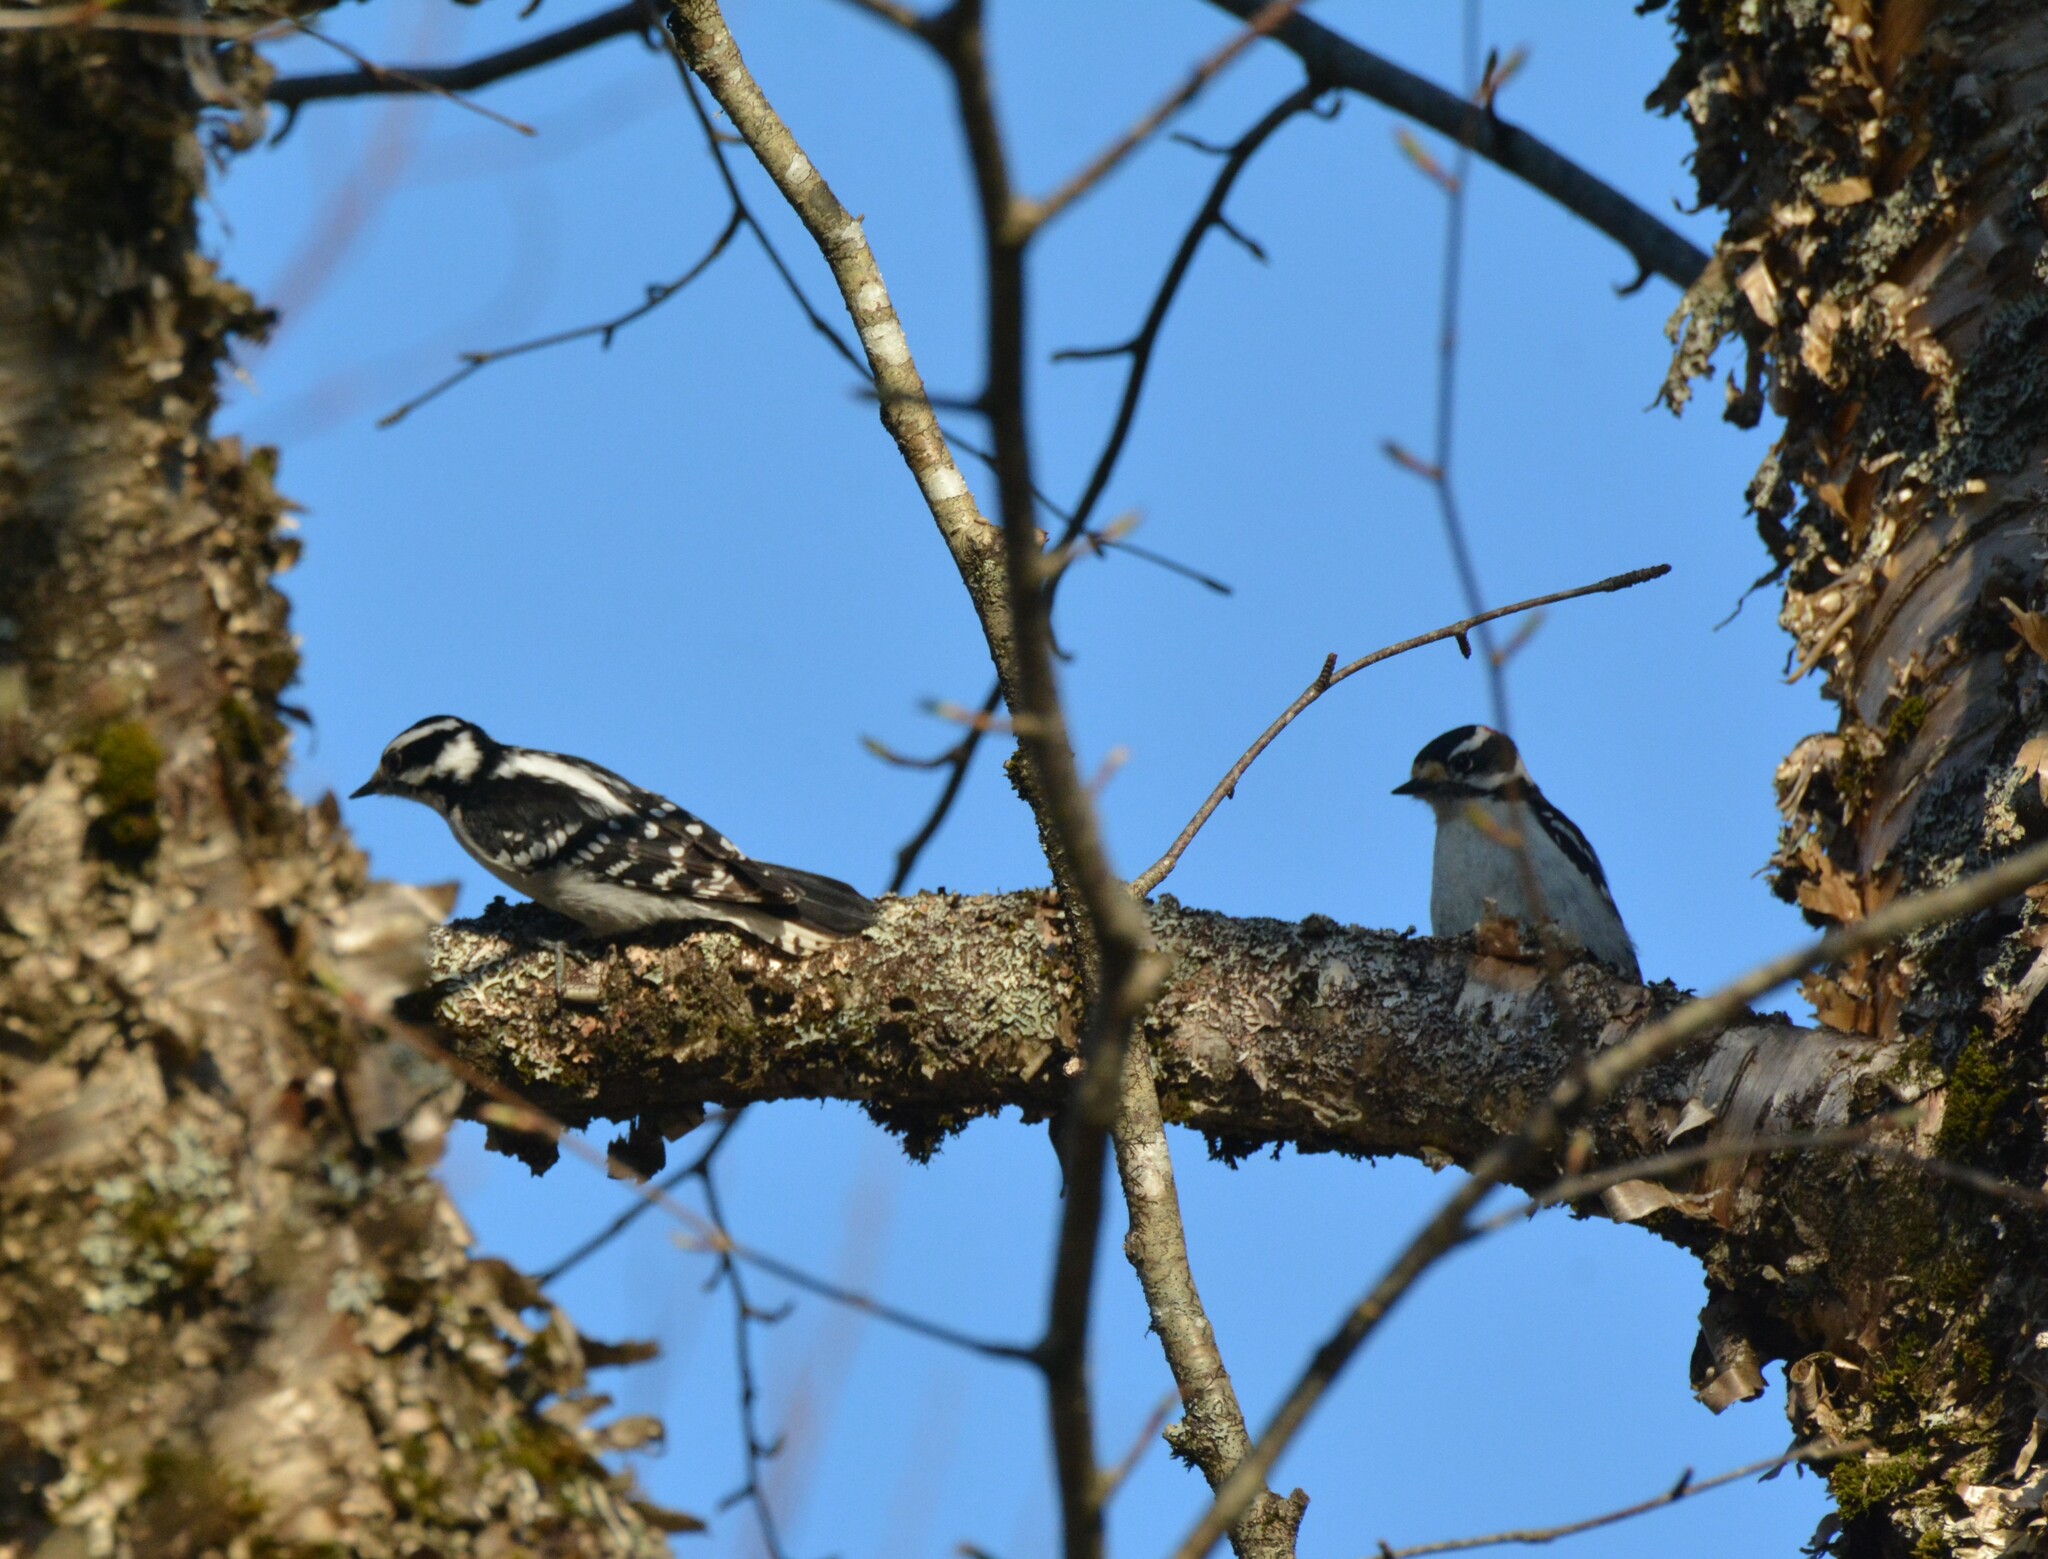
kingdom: Animalia
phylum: Chordata
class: Aves
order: Piciformes
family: Picidae
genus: Dryobates
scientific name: Dryobates pubescens
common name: Downy woodpecker
